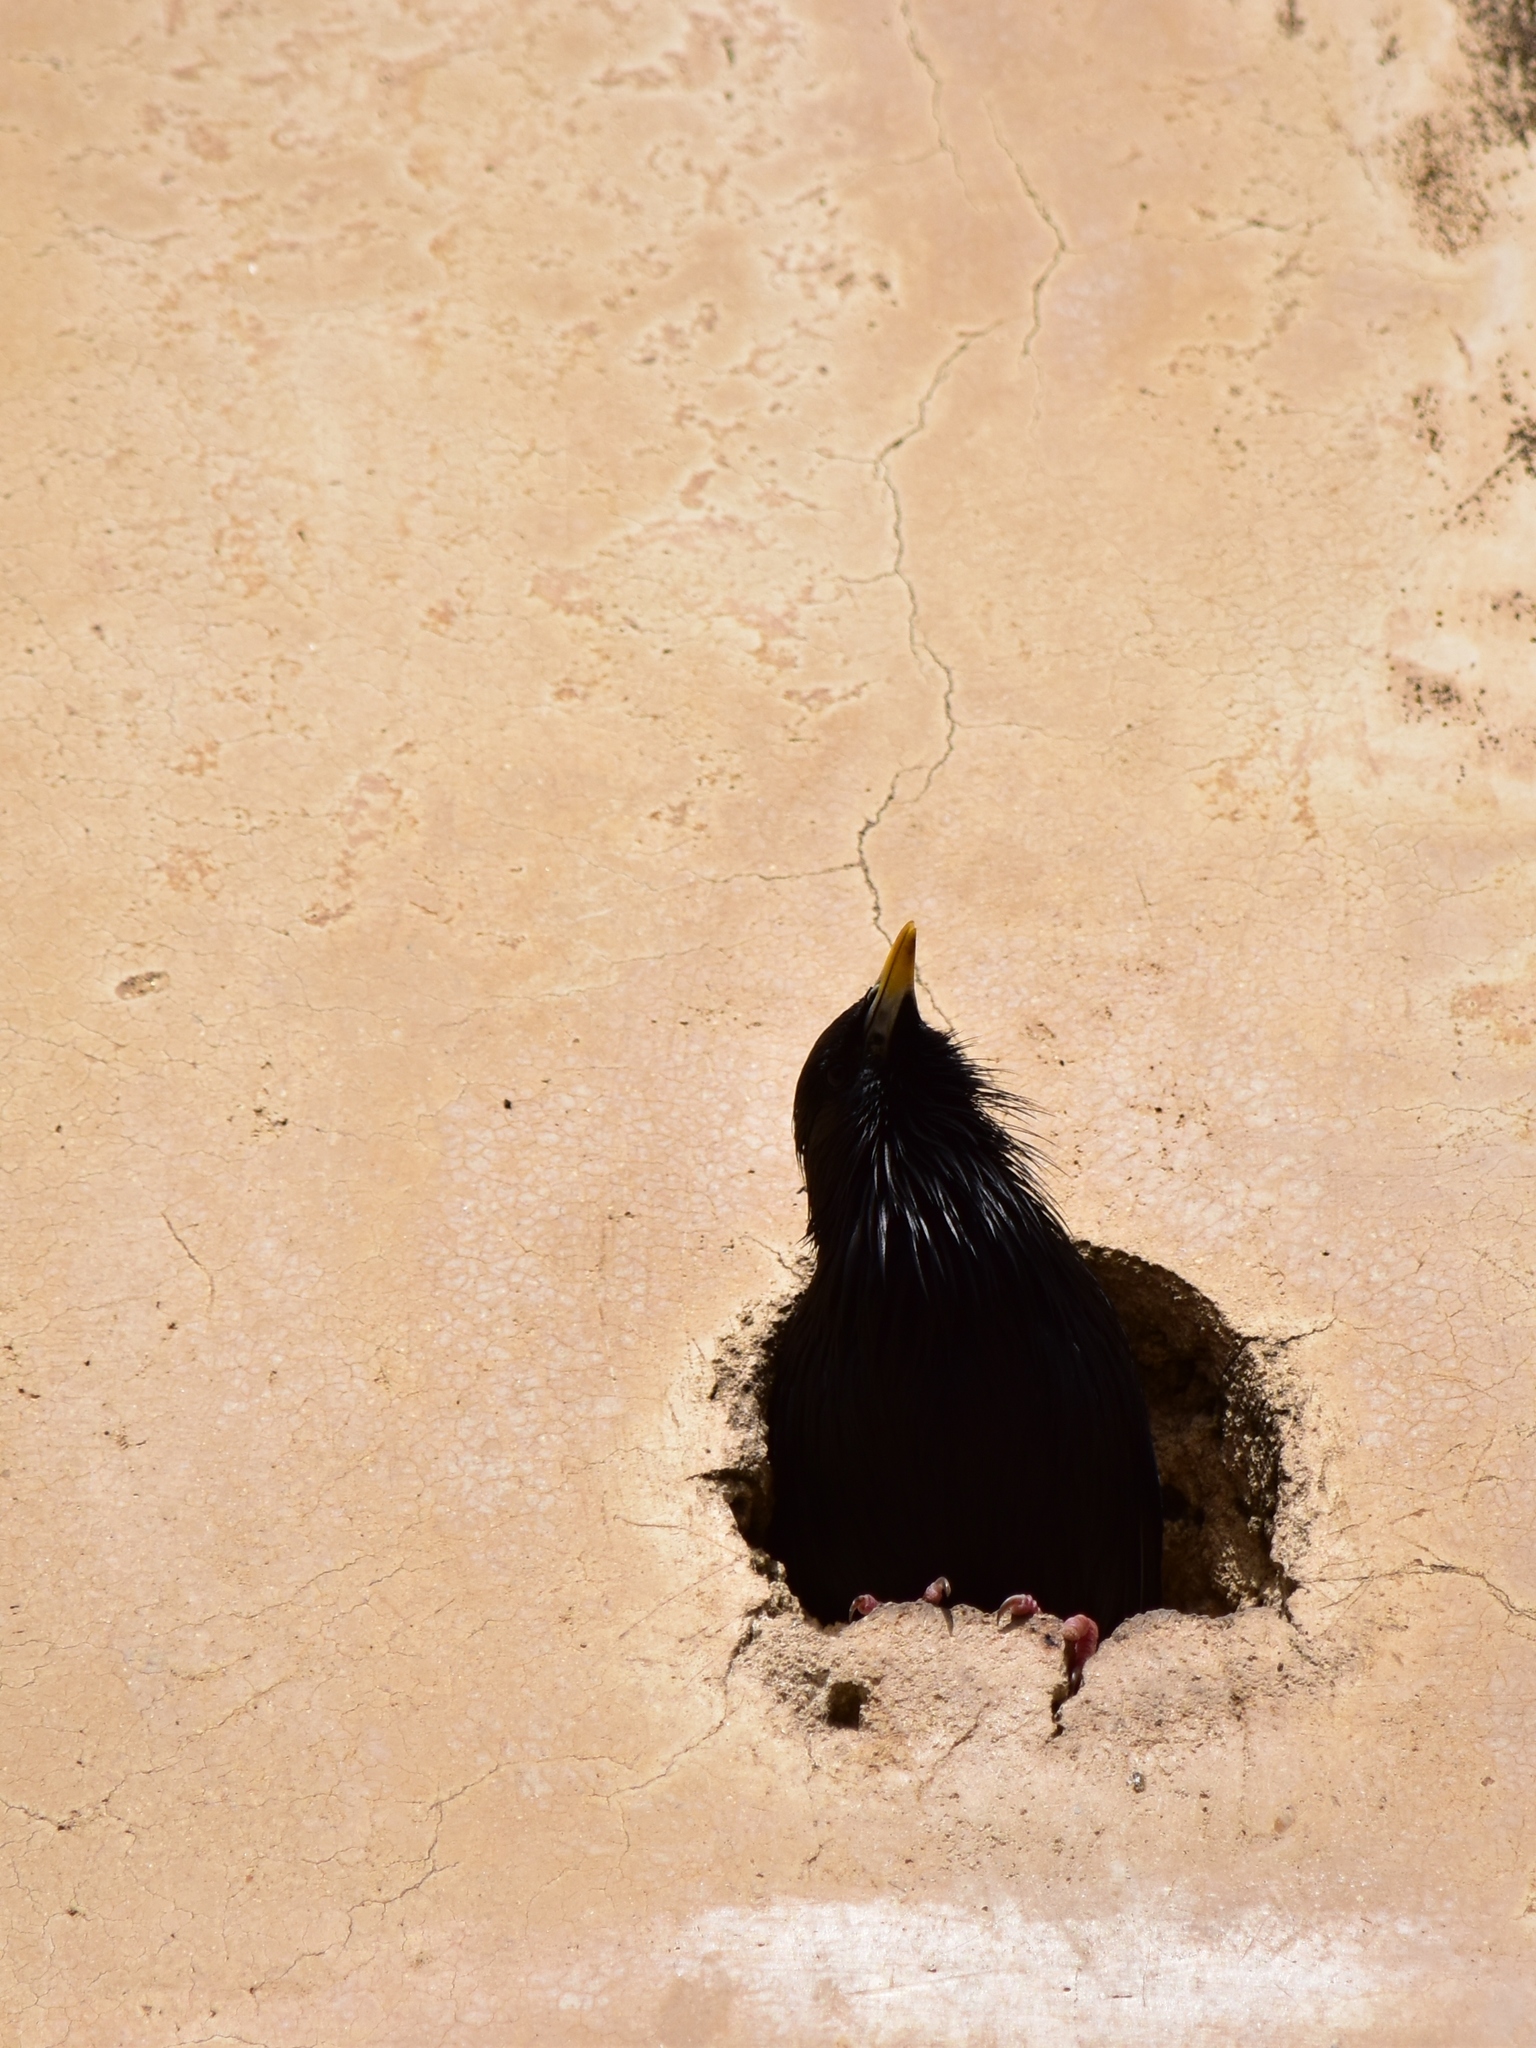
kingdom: Animalia
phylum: Chordata
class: Aves
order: Passeriformes
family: Sturnidae
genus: Sturnus
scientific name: Sturnus unicolor
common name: Spotless starling
